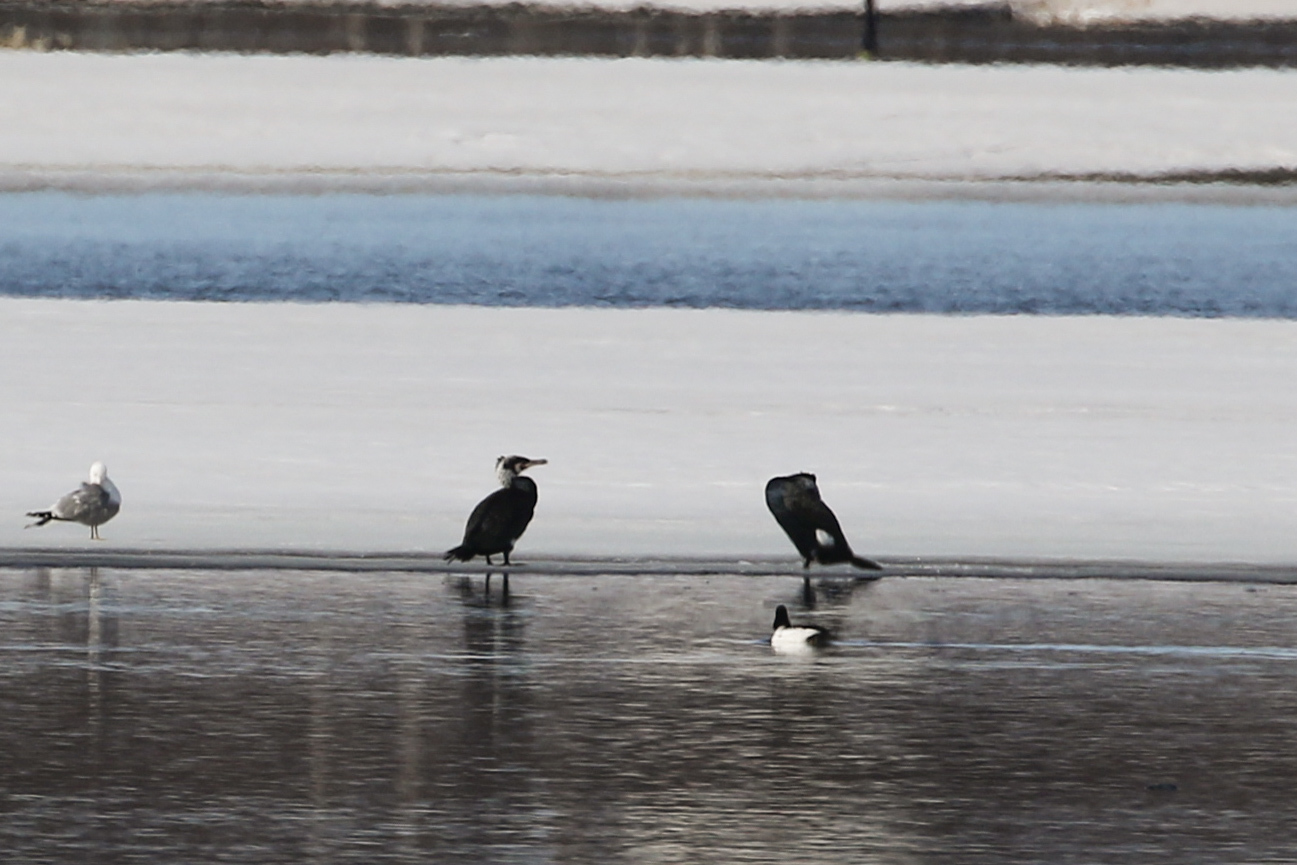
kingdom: Animalia
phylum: Chordata
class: Aves
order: Suliformes
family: Phalacrocoracidae
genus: Phalacrocorax
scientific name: Phalacrocorax carbo
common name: Great cormorant
